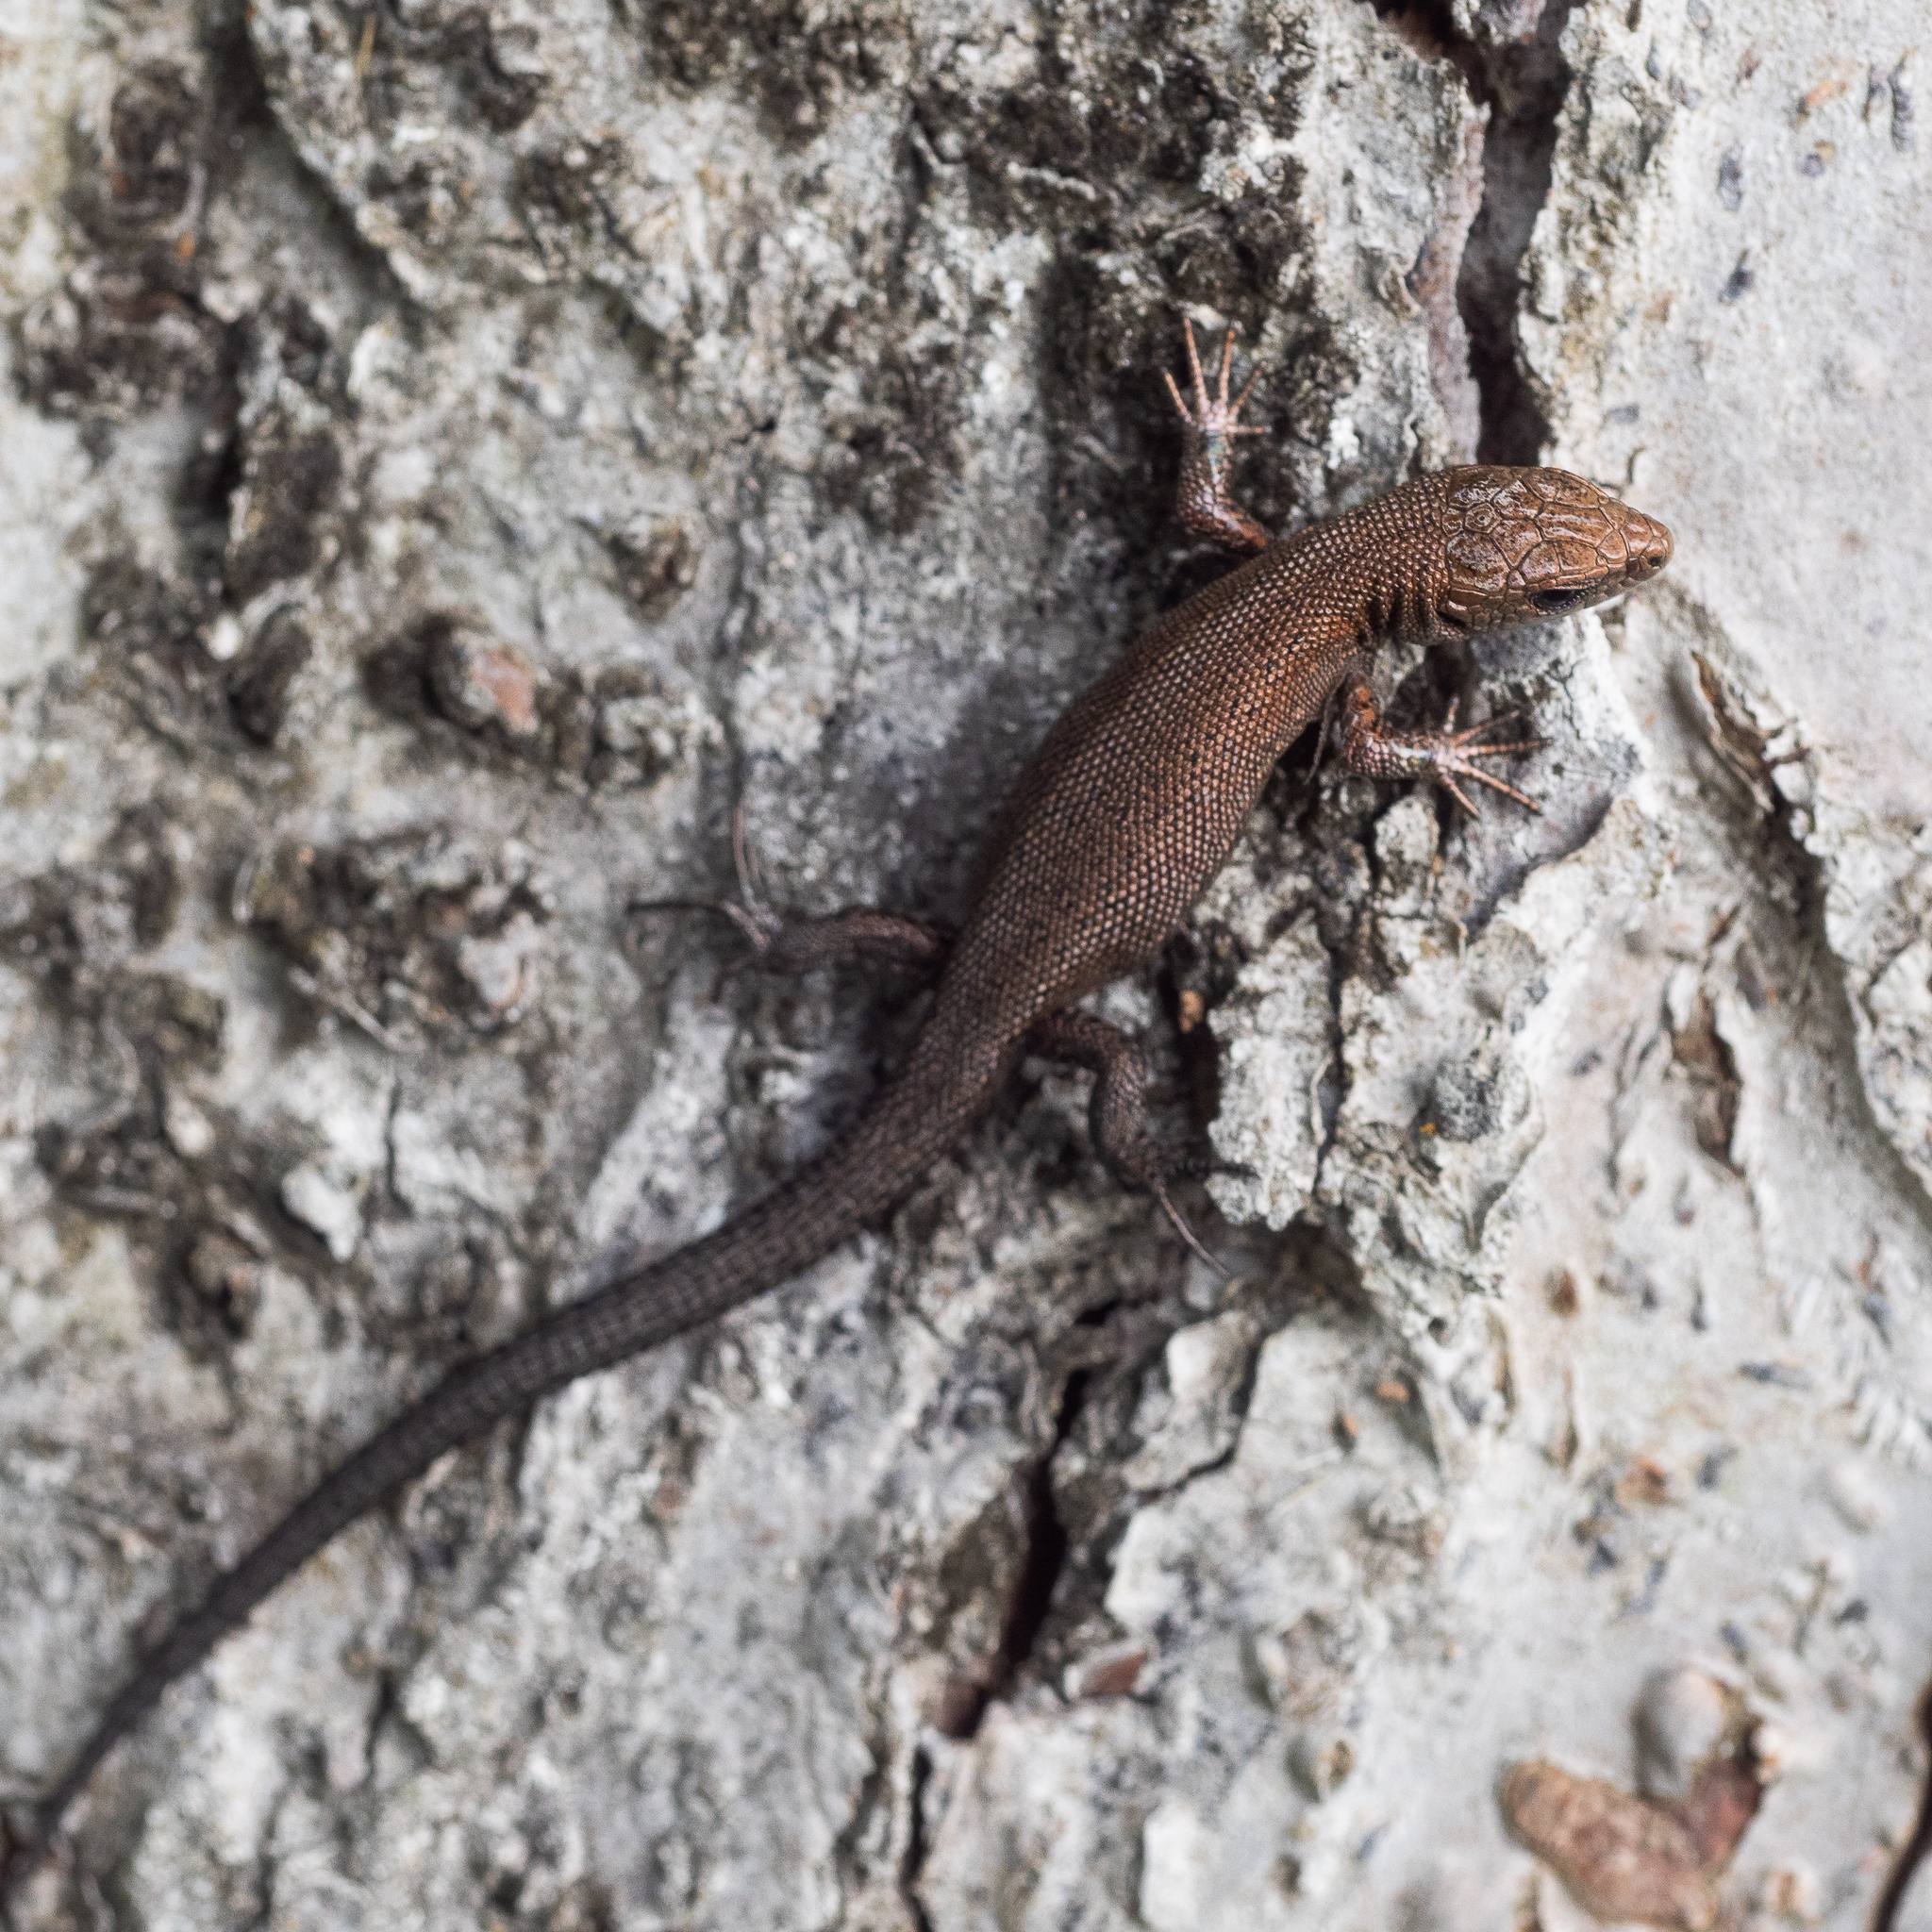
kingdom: Animalia
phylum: Chordata
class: Squamata
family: Lacertidae
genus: Zootoca
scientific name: Zootoca vivipara
